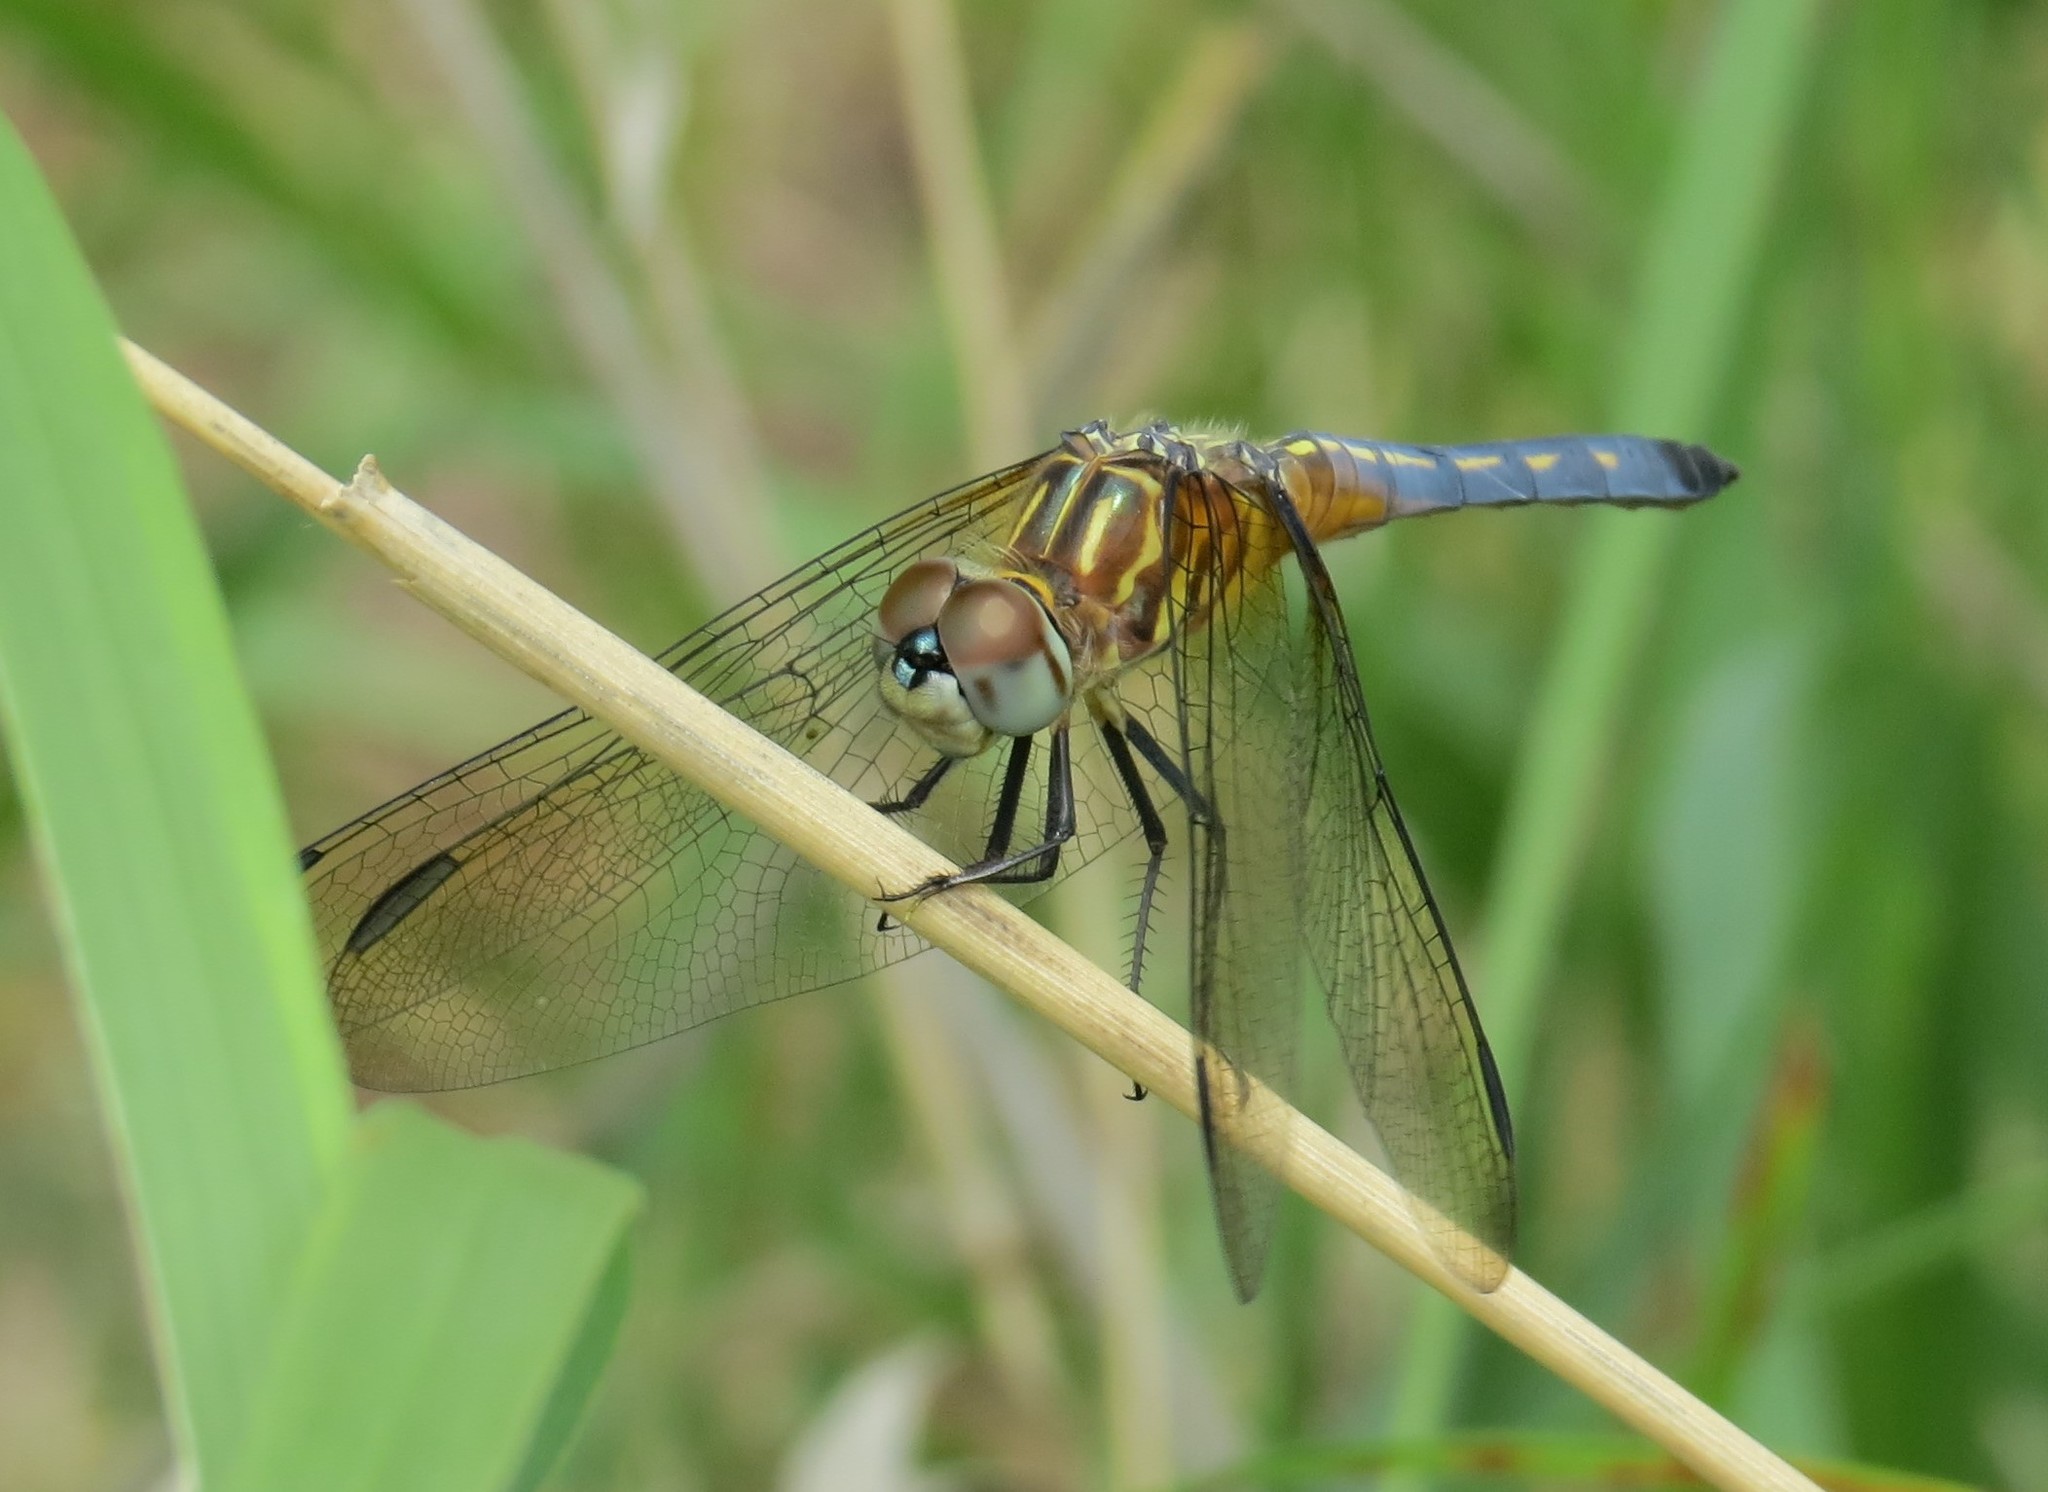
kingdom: Animalia
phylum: Arthropoda
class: Insecta
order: Odonata
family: Libellulidae
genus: Pachydiplax
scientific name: Pachydiplax longipennis
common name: Blue dasher
